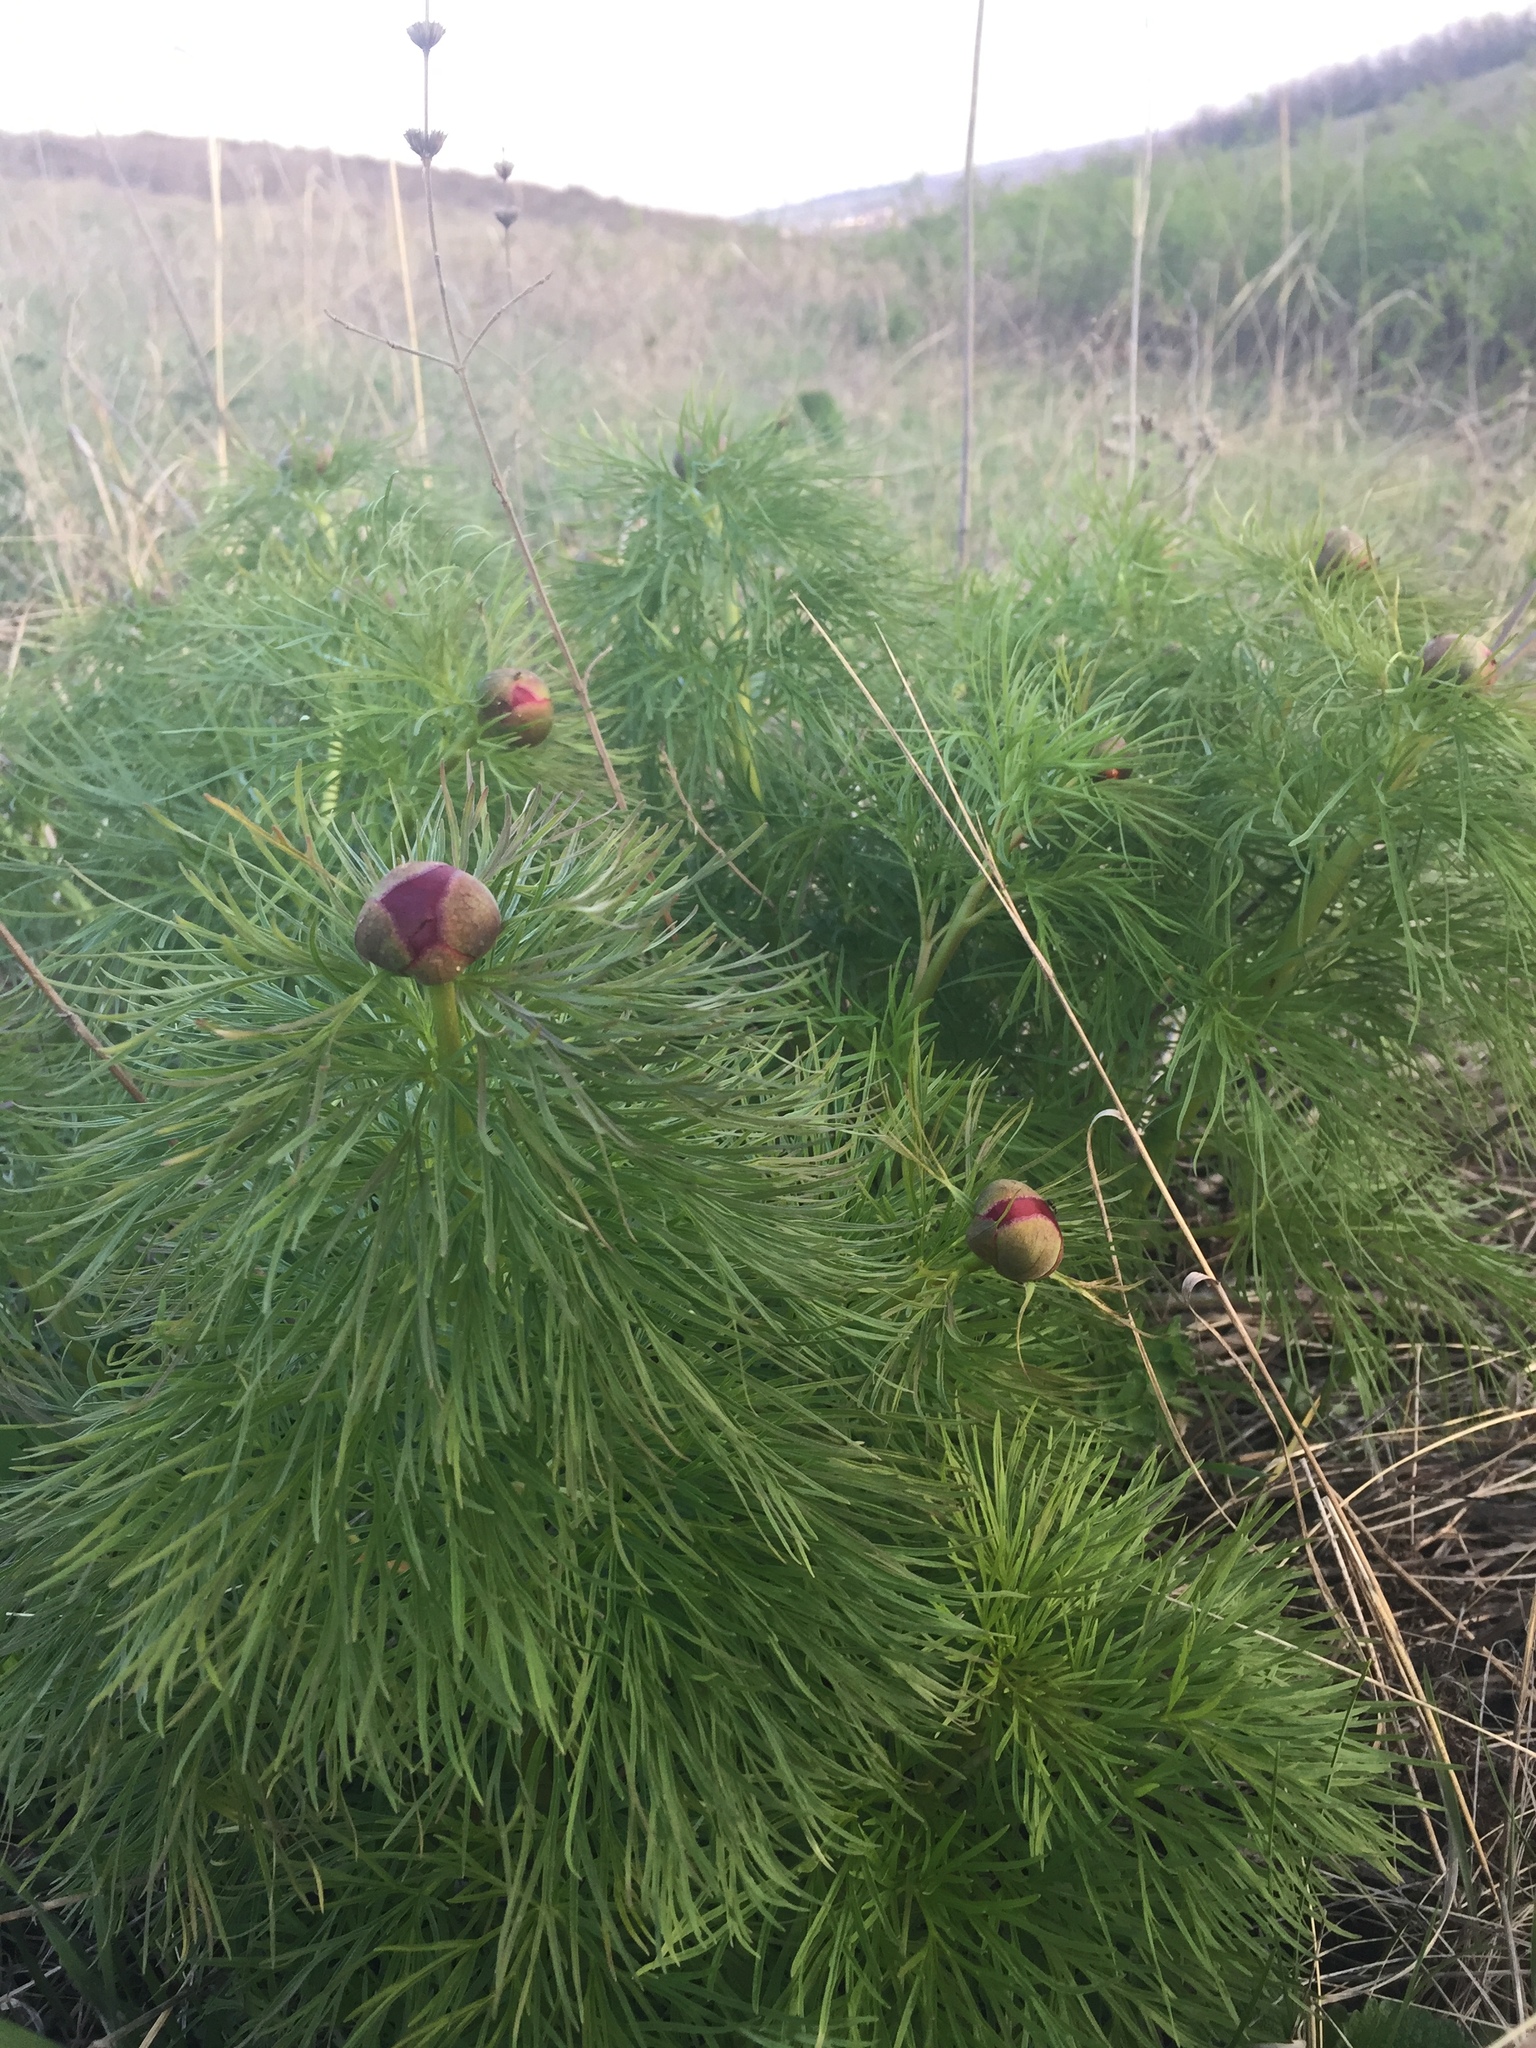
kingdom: Plantae
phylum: Tracheophyta
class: Magnoliopsida
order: Saxifragales
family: Paeoniaceae
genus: Paeonia
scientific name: Paeonia tenuifolia
